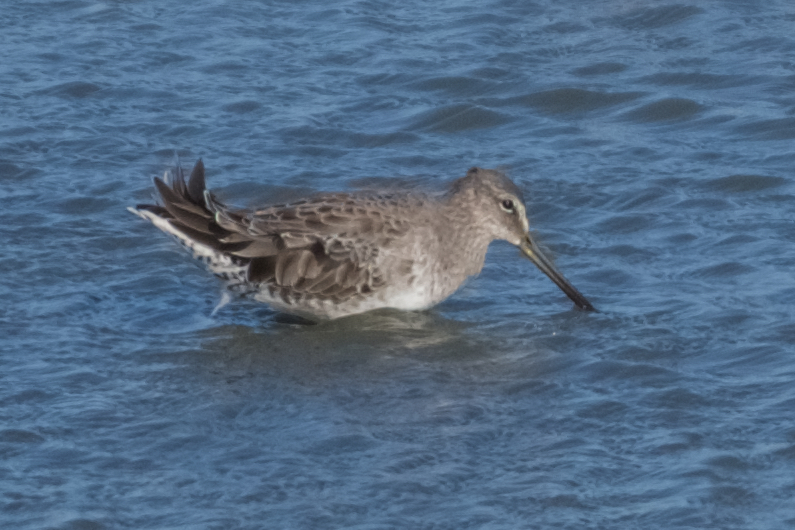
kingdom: Animalia
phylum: Chordata
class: Aves
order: Charadriiformes
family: Scolopacidae
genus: Limnodromus
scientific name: Limnodromus scolopaceus
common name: Long-billed dowitcher
